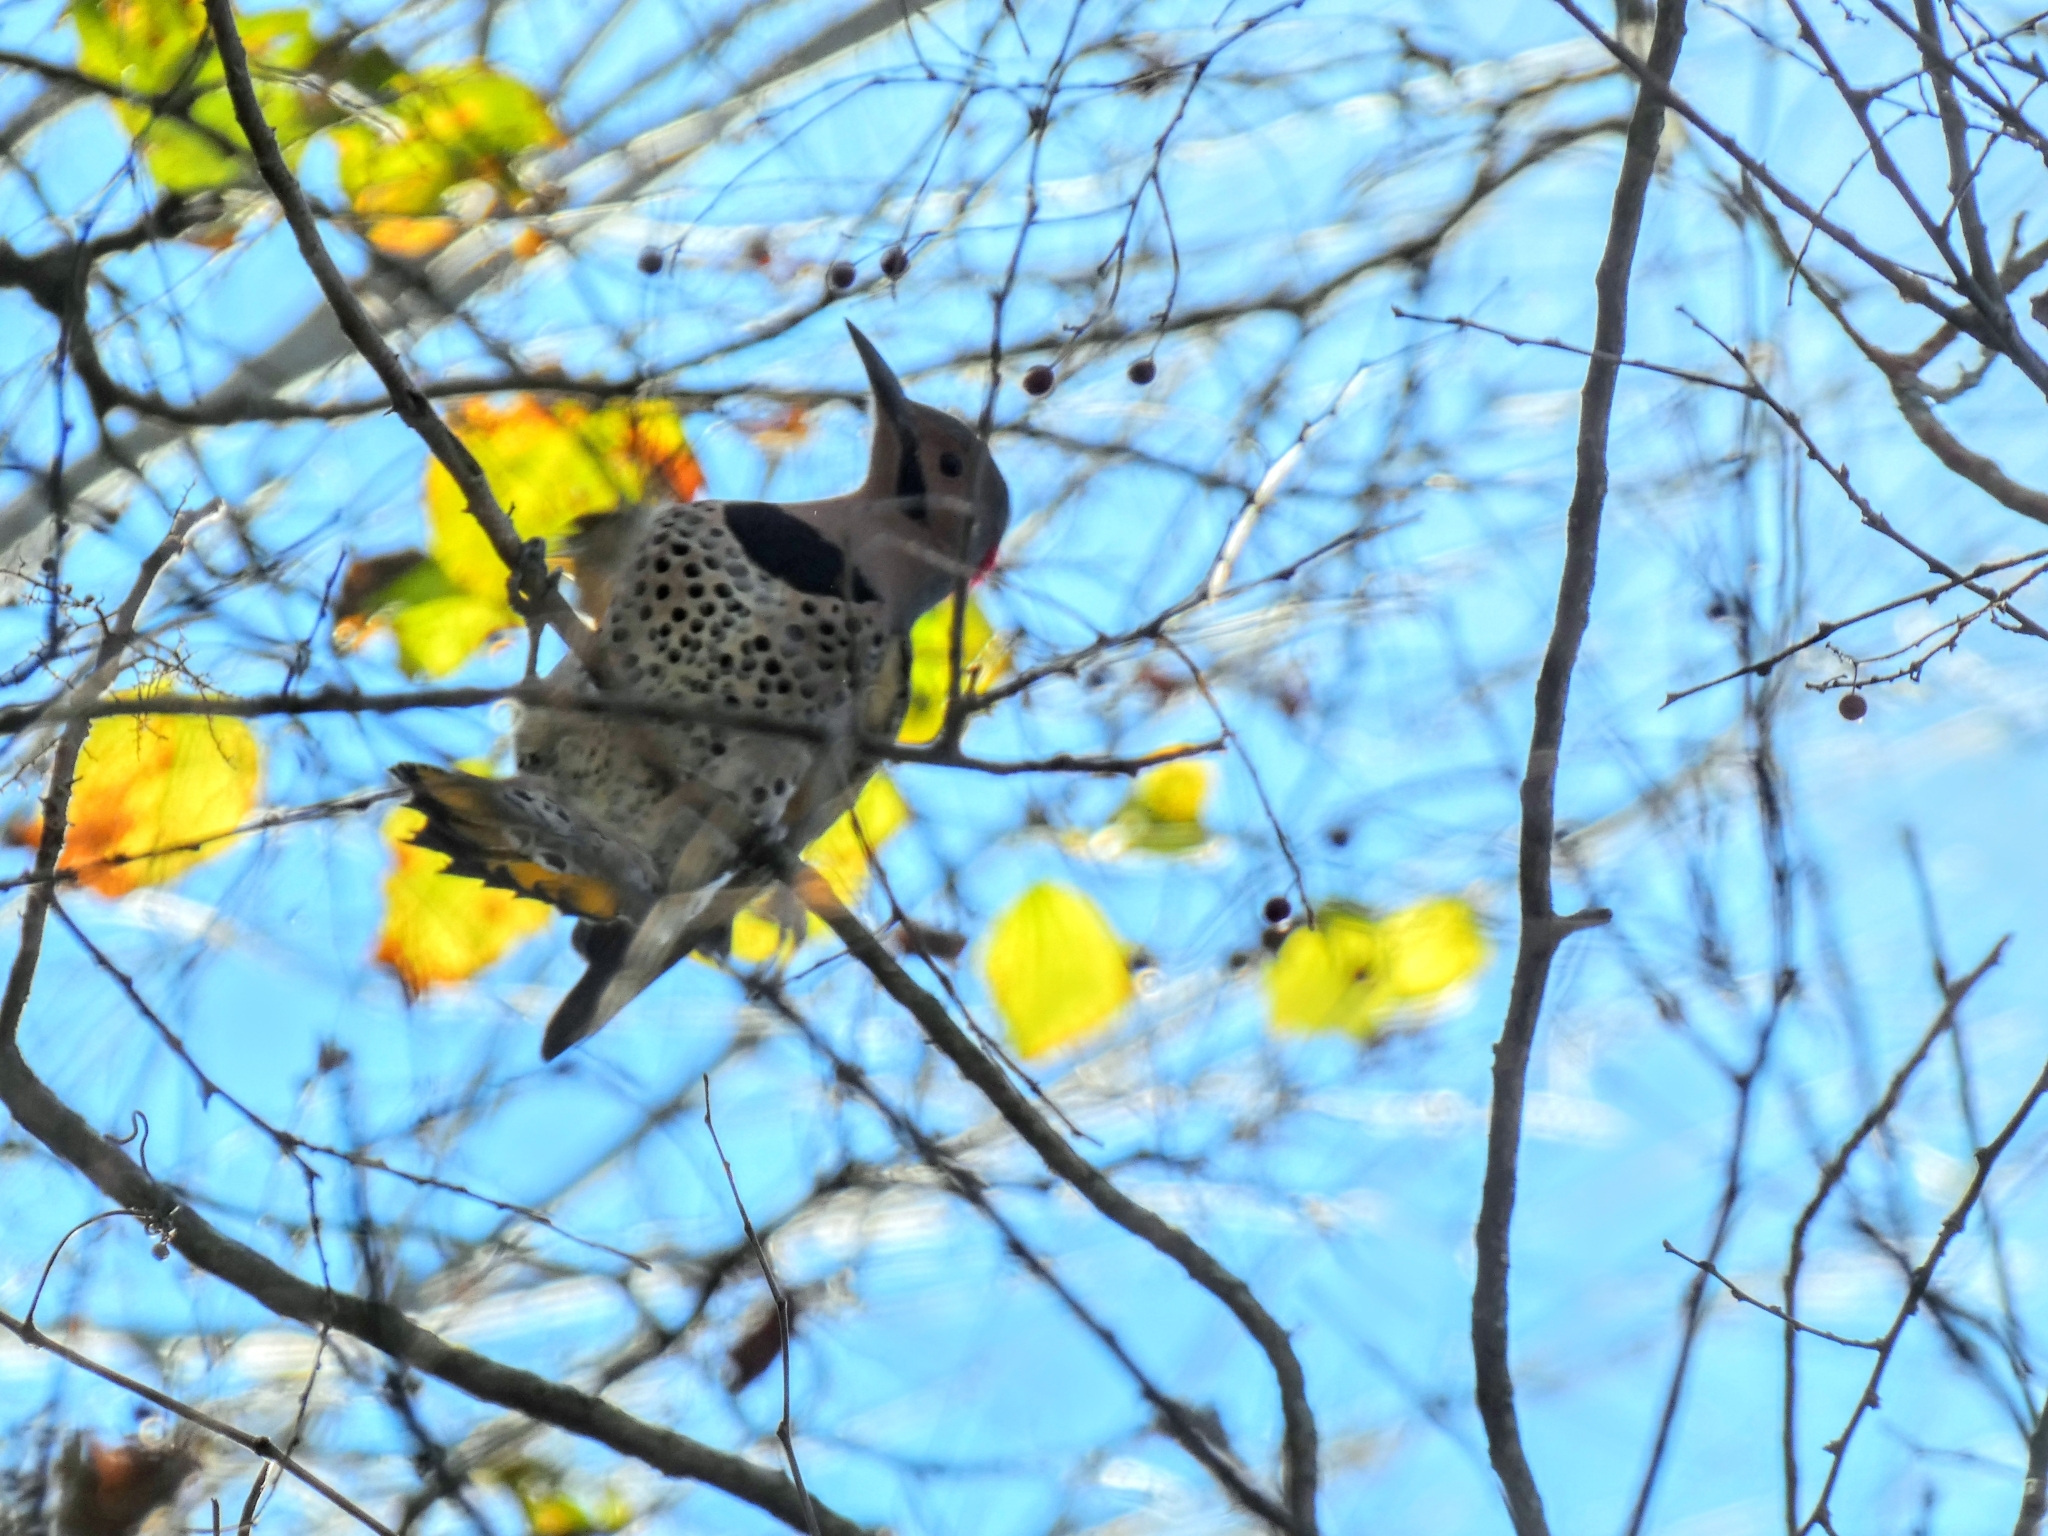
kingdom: Animalia
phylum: Chordata
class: Aves
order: Piciformes
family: Picidae
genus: Colaptes
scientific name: Colaptes auratus
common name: Northern flicker
